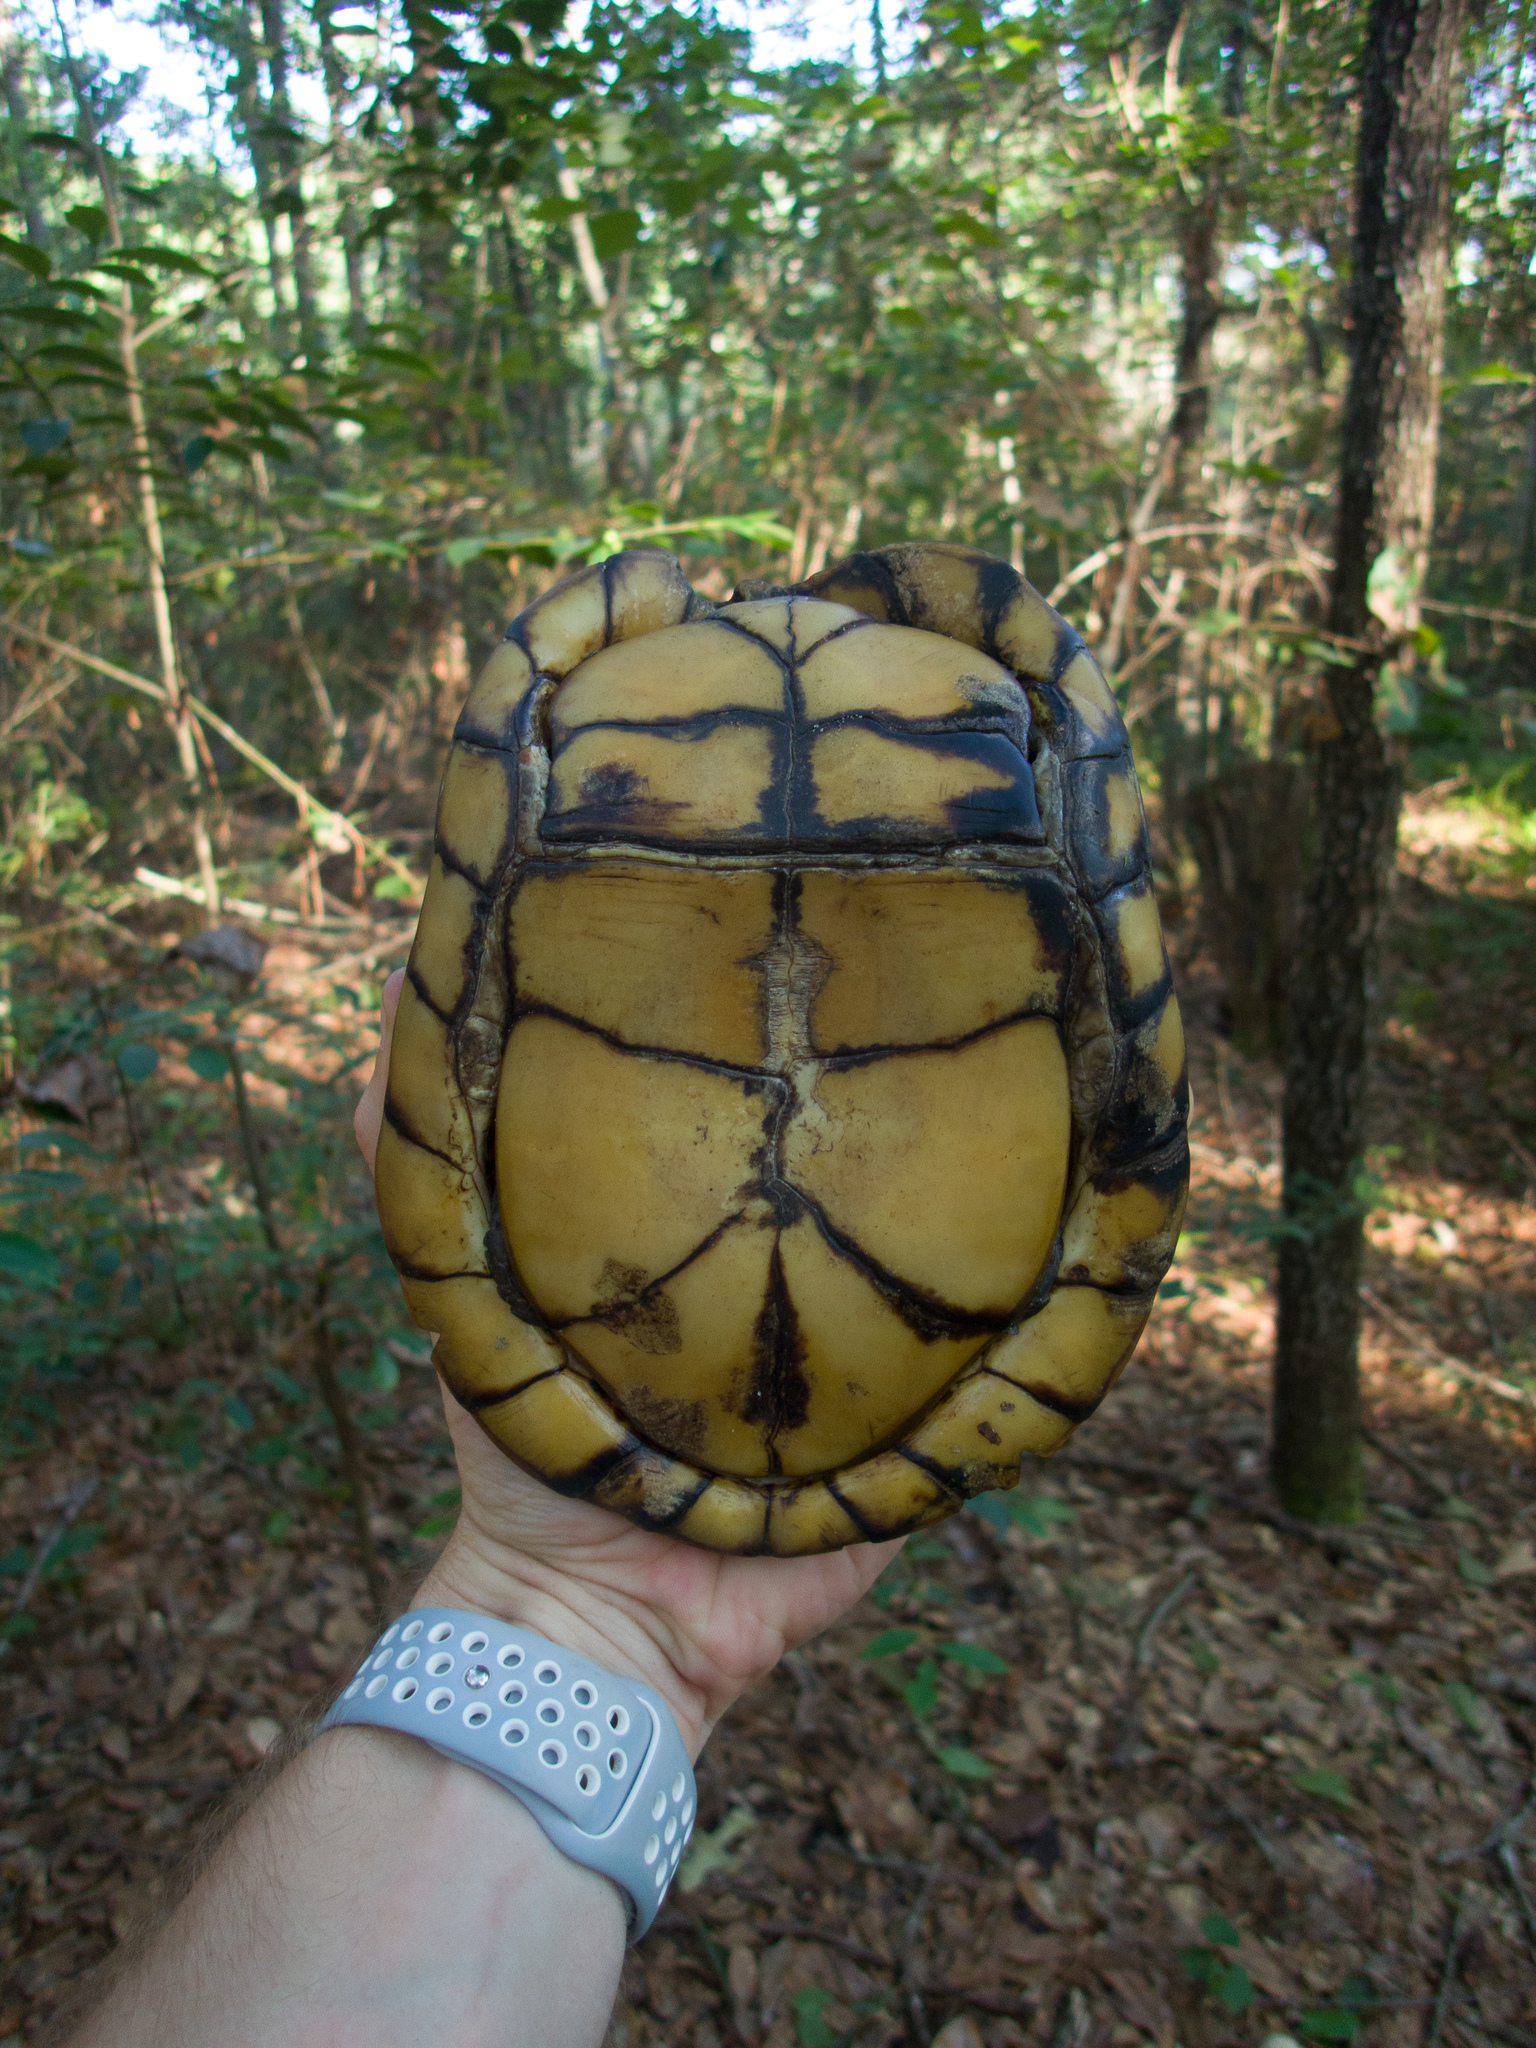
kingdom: Animalia
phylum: Chordata
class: Testudines
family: Emydidae
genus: Terrapene
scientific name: Terrapene carolina
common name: Common box turtle
